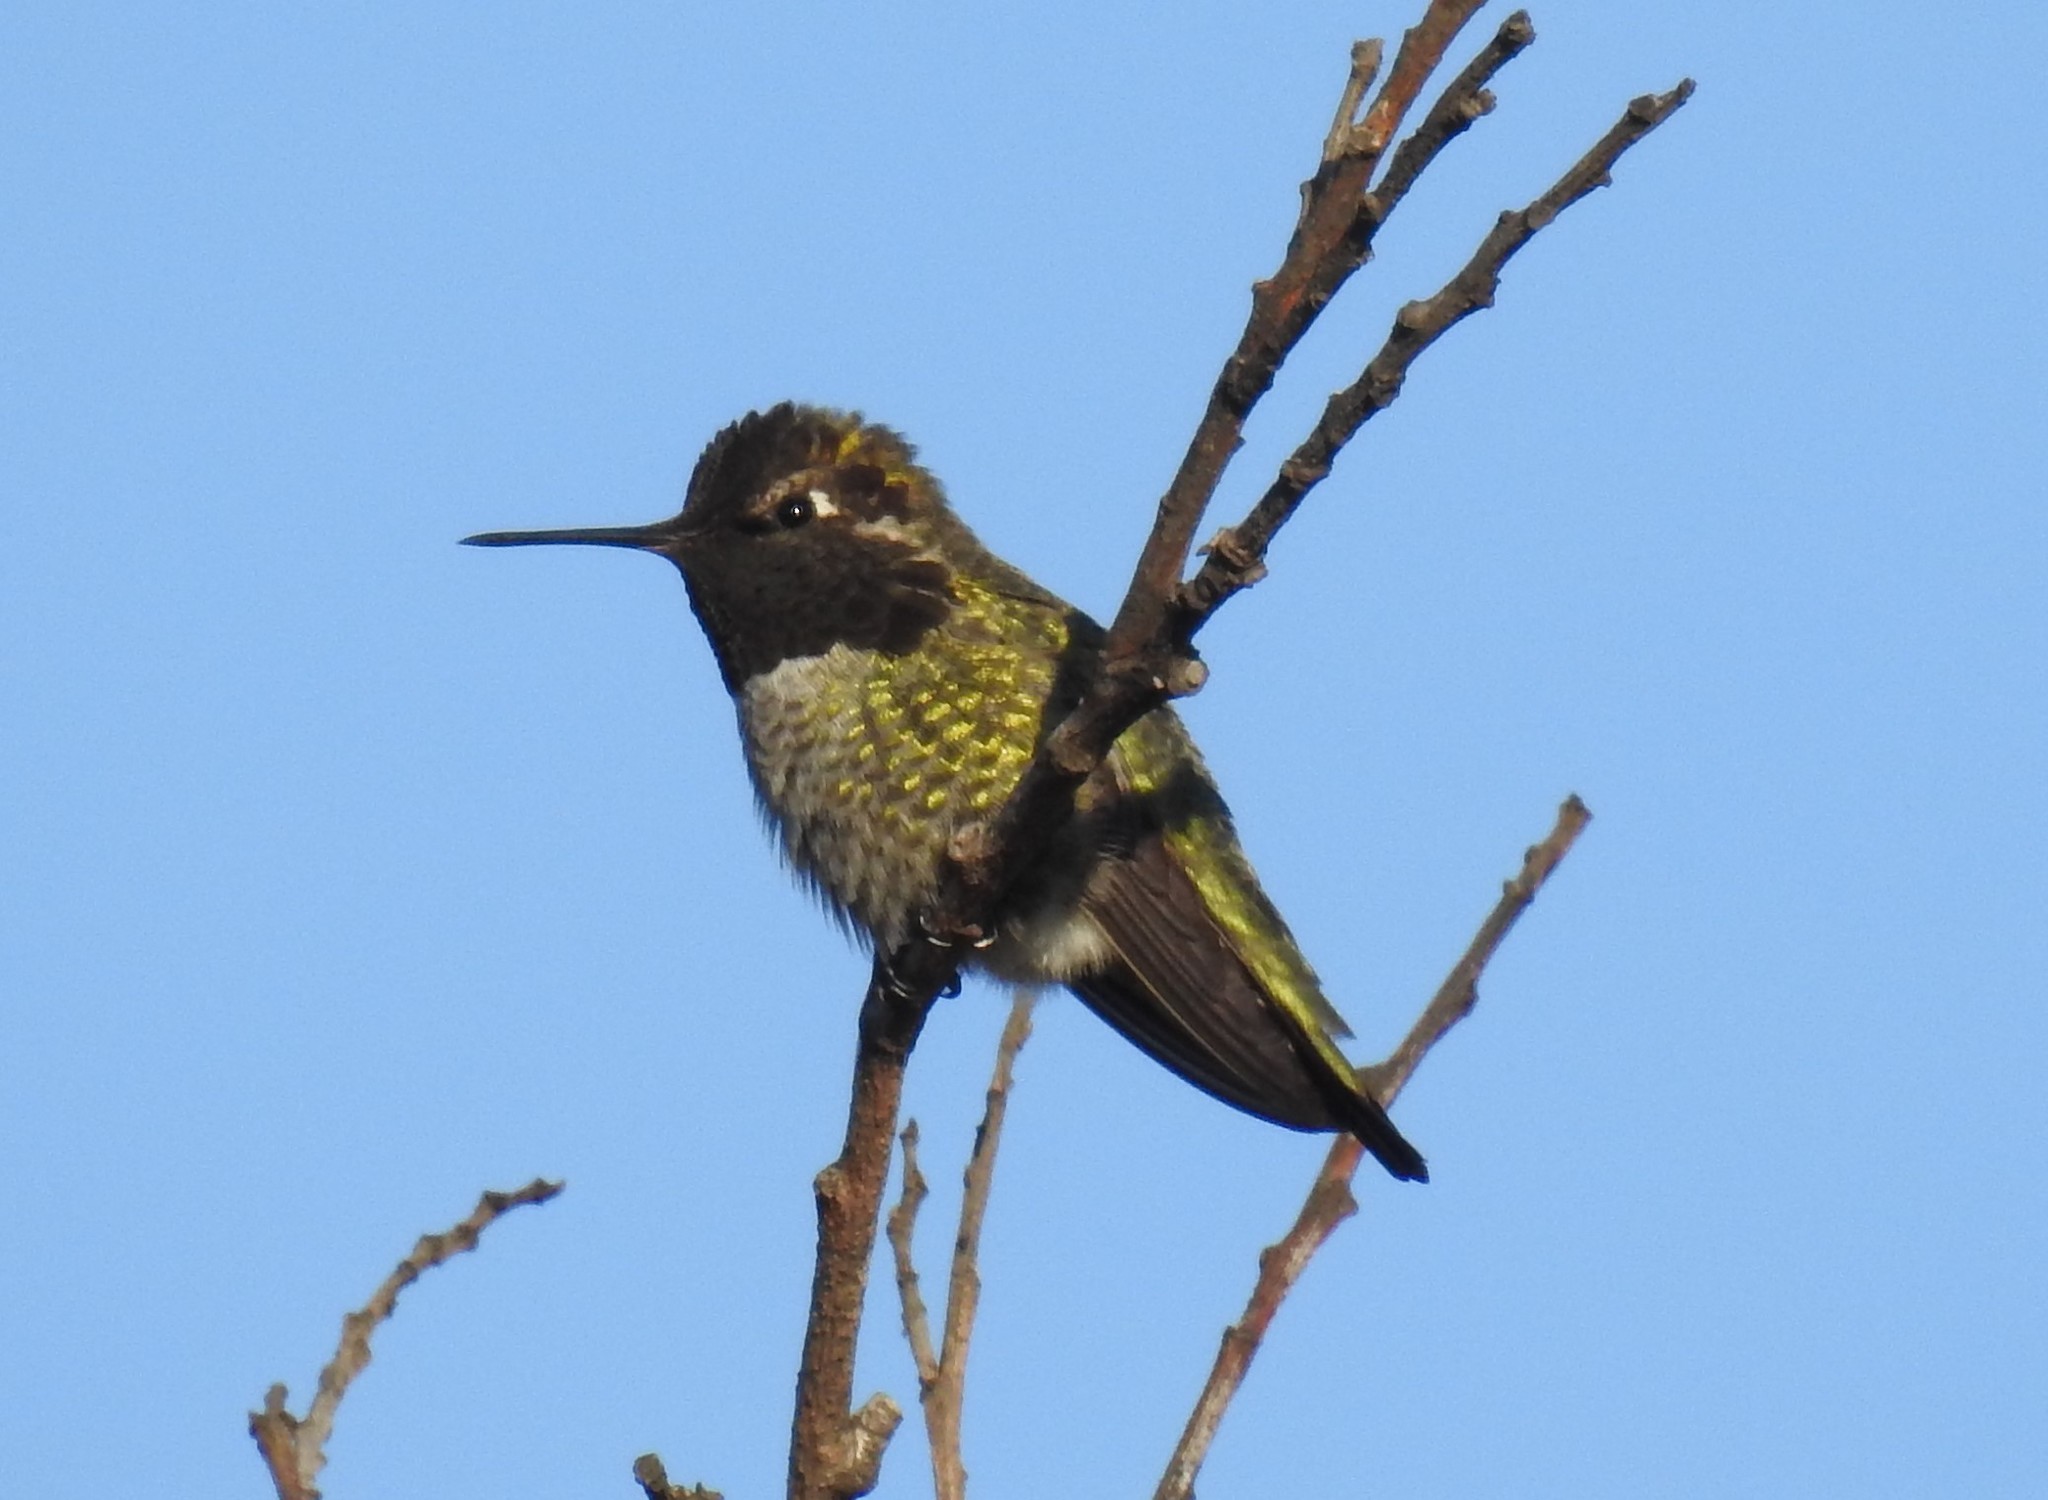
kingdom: Animalia
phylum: Chordata
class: Aves
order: Apodiformes
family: Trochilidae
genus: Calypte
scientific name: Calypte anna
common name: Anna's hummingbird
